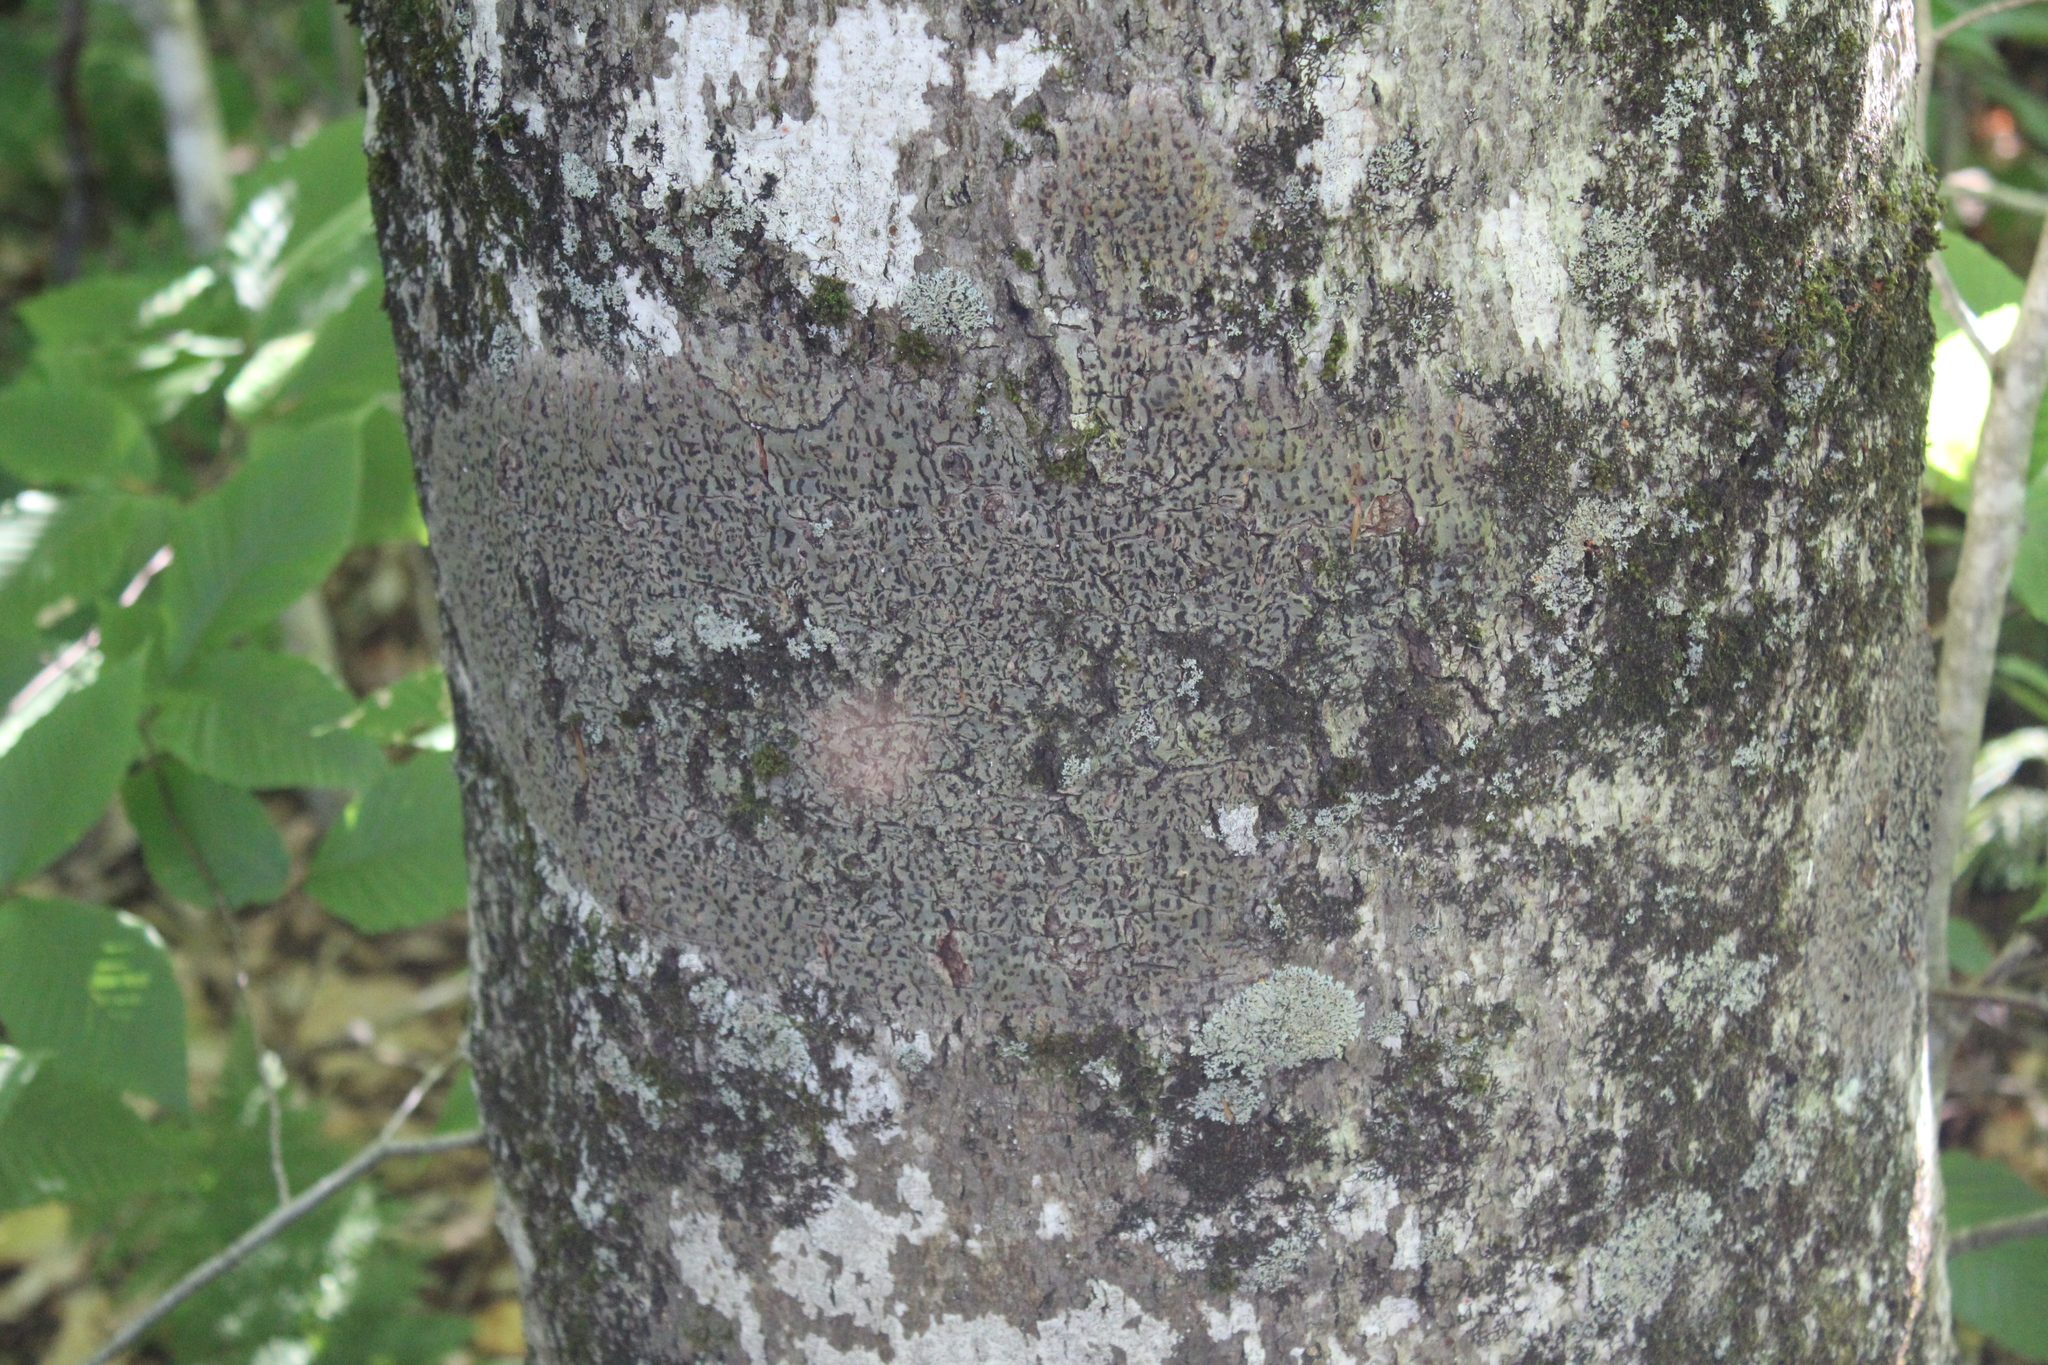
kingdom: Fungi
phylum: Ascomycota
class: Dothideomycetes
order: Trypetheliales
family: Trypetheliaceae
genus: Viridothelium
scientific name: Viridothelium virens
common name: Speckled blister lichen
